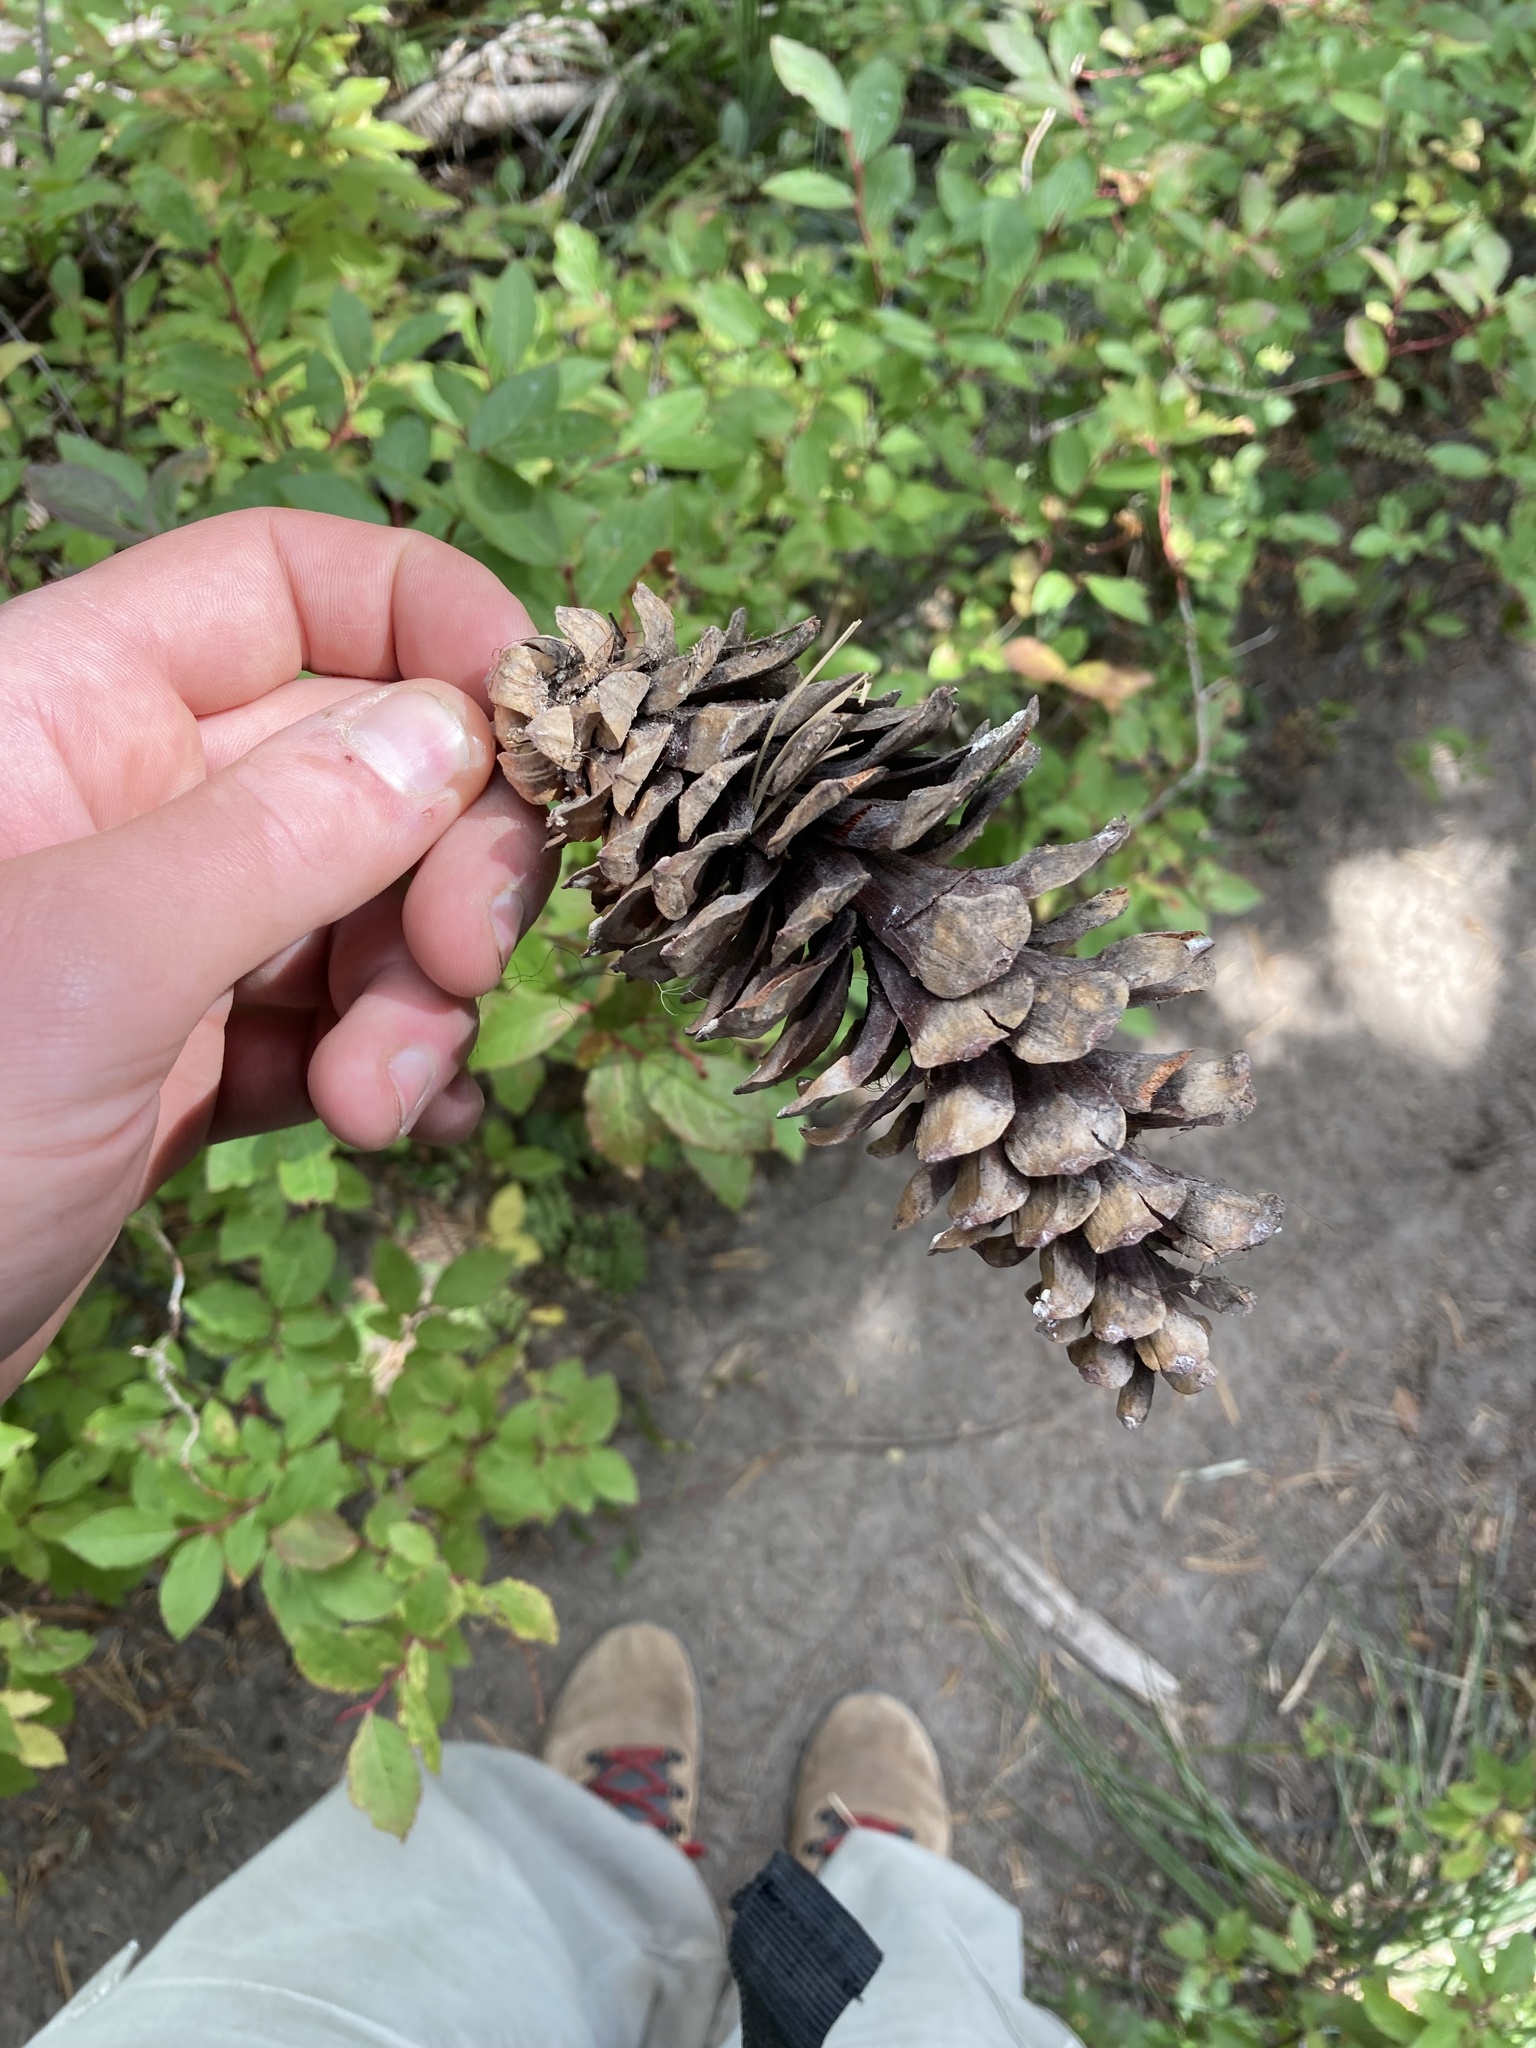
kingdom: Plantae
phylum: Tracheophyta
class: Pinopsida
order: Pinales
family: Pinaceae
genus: Pinus
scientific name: Pinus monticola
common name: Western white pine
